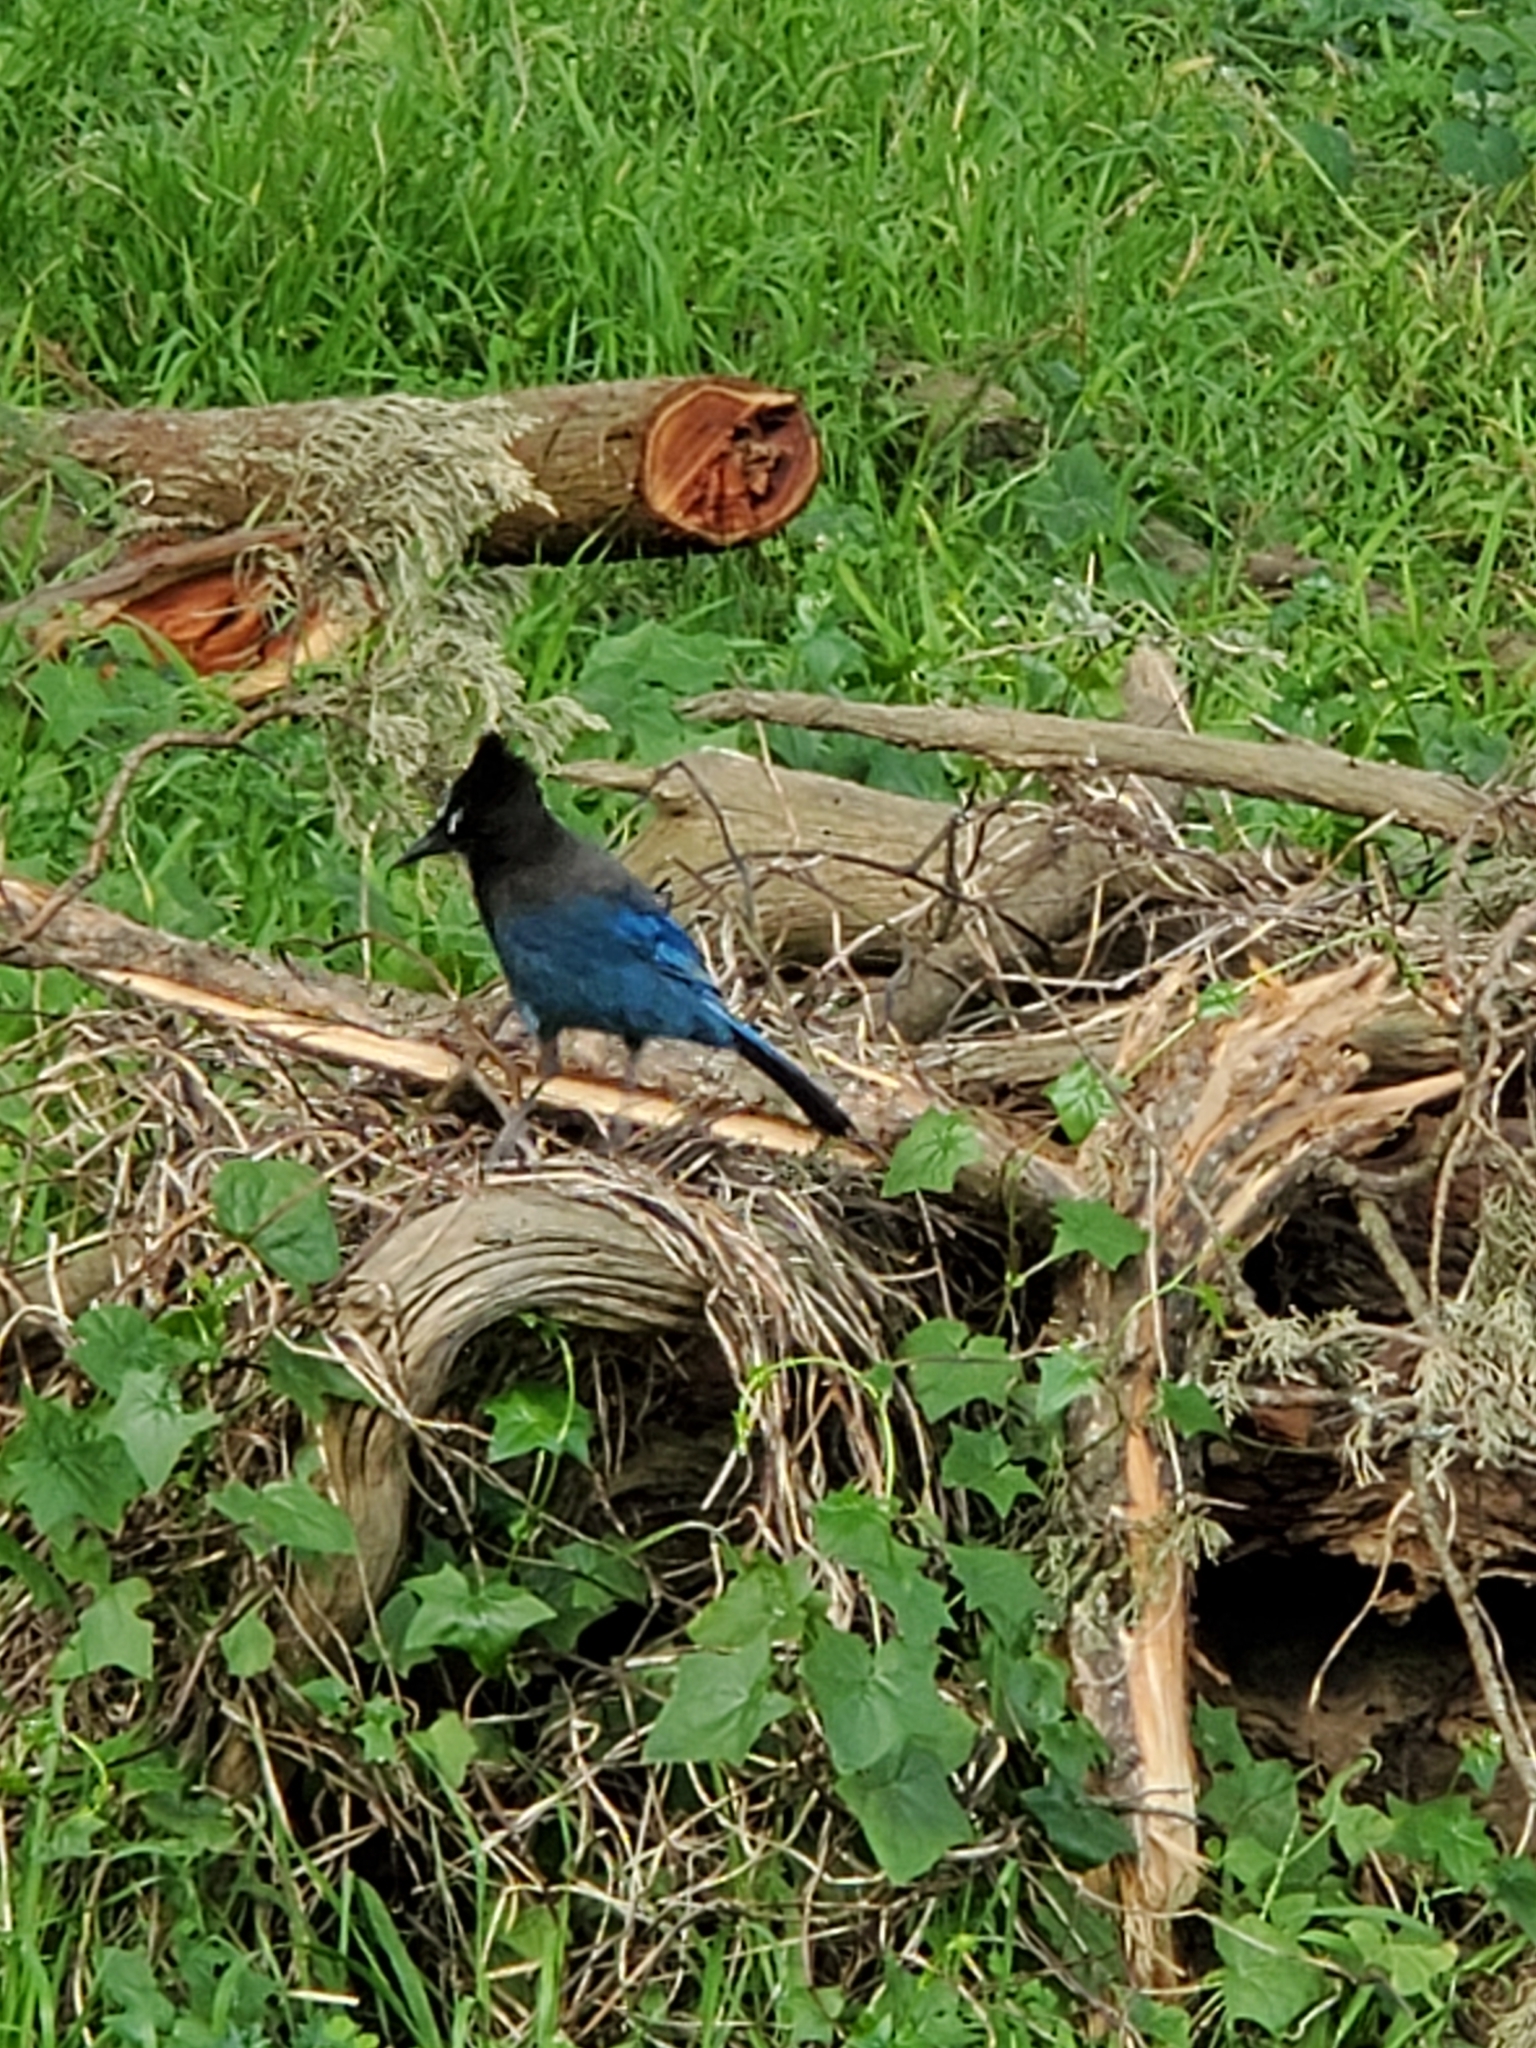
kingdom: Animalia
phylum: Chordata
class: Aves
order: Passeriformes
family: Corvidae
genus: Cyanocitta
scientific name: Cyanocitta stelleri
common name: Steller's jay
